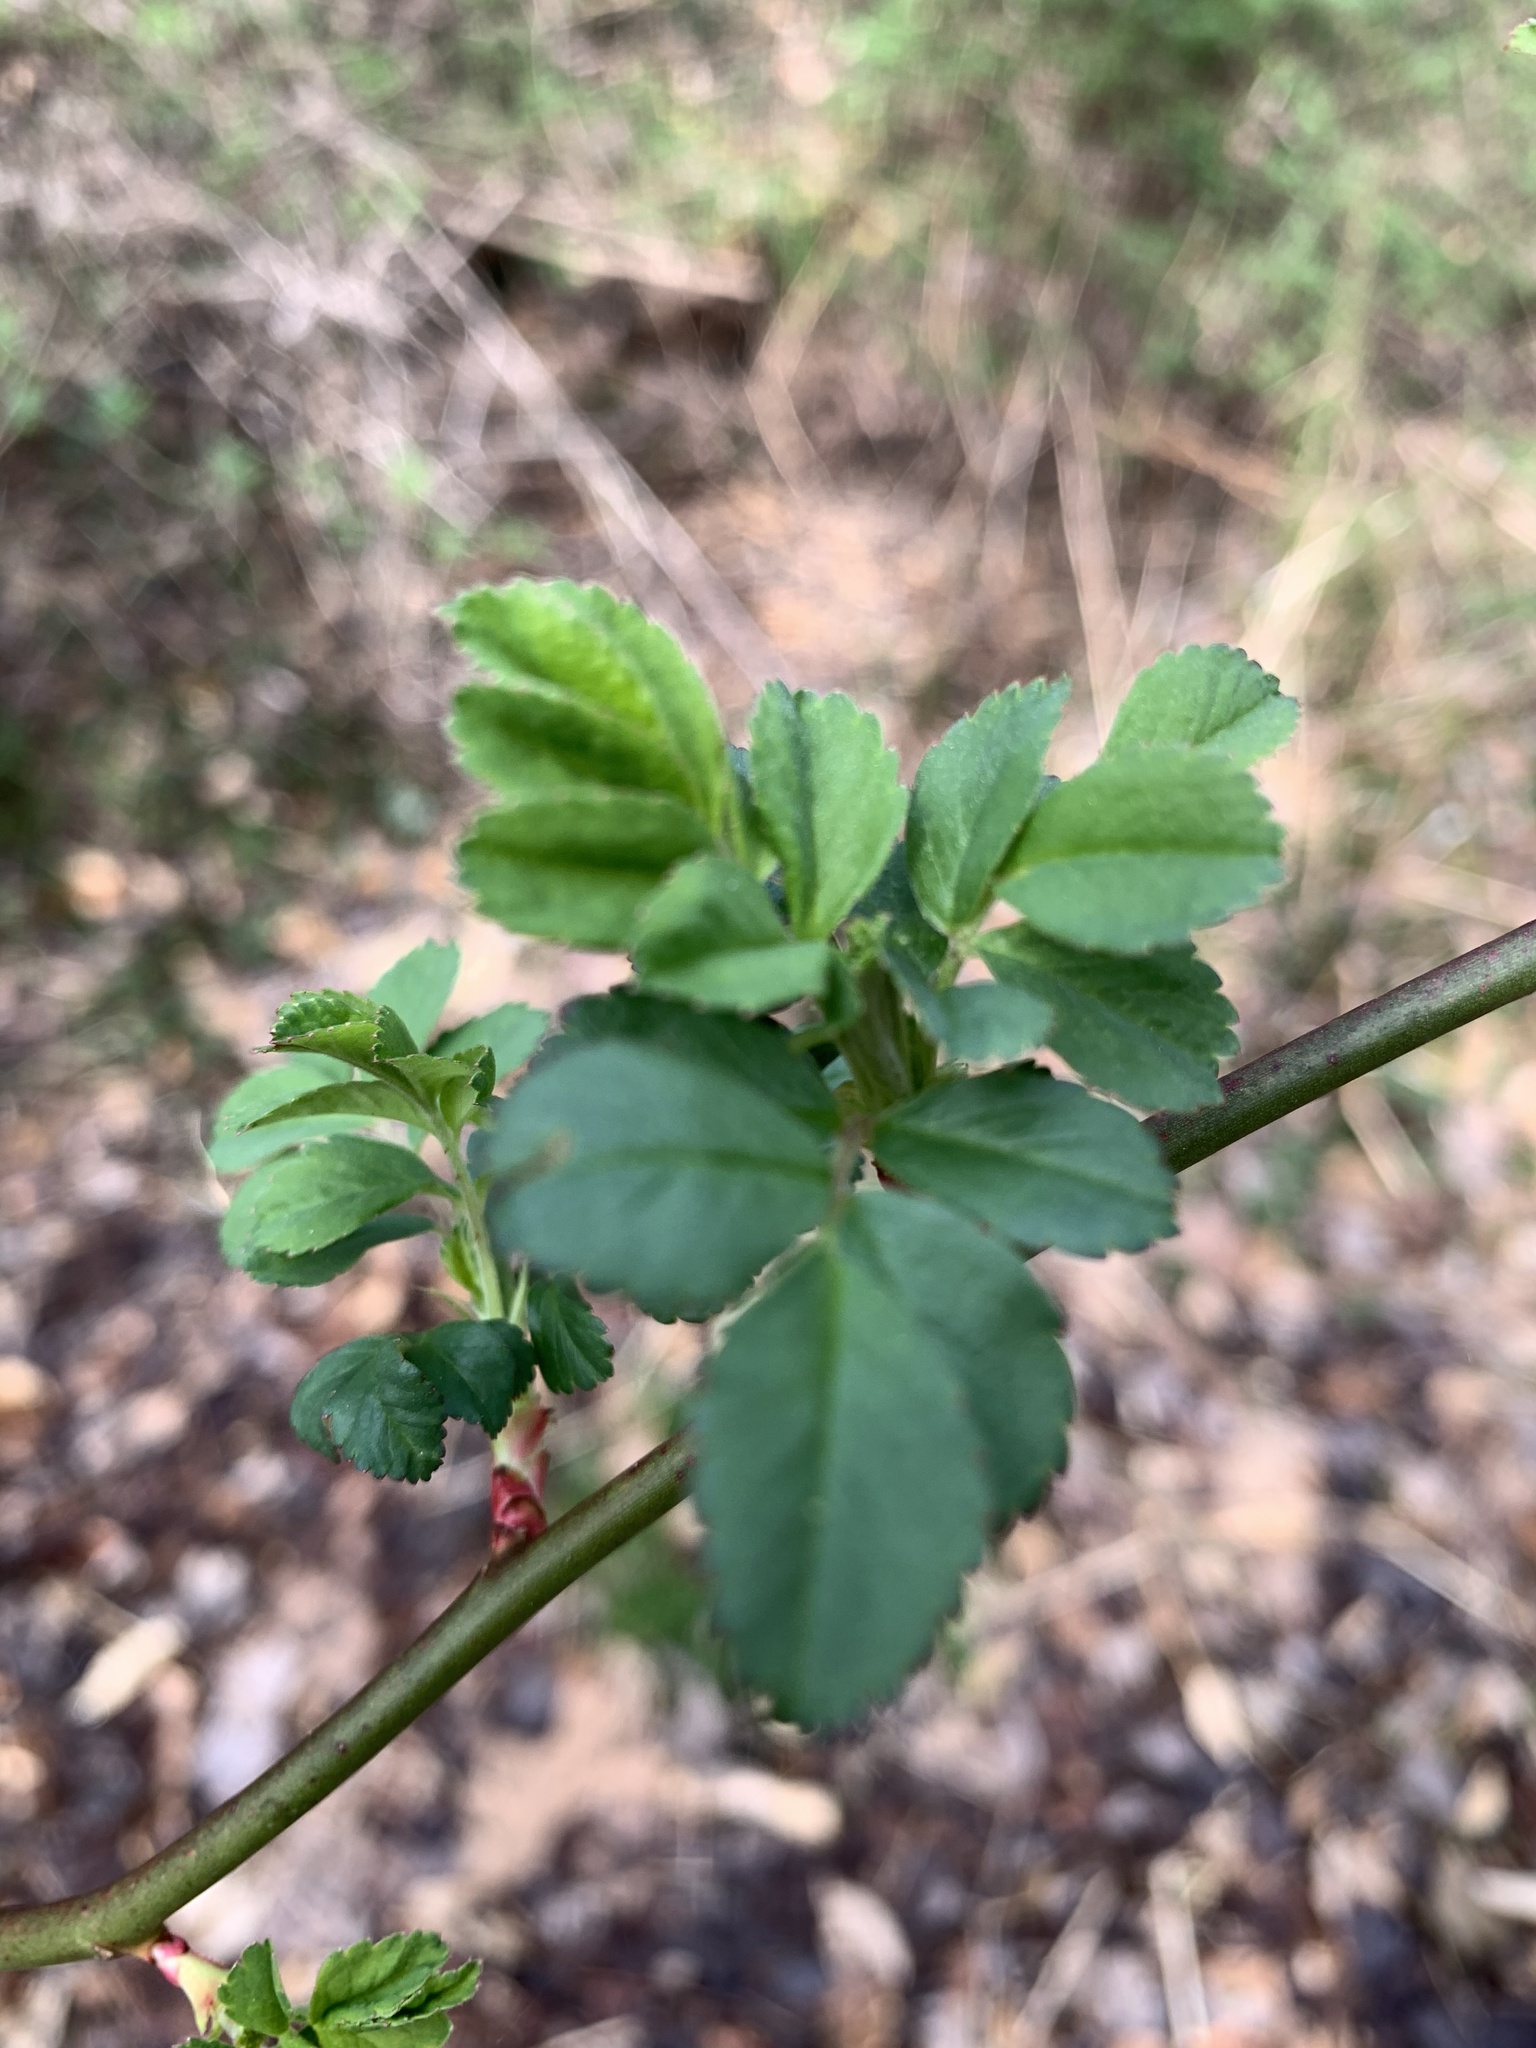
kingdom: Plantae
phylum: Tracheophyta
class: Magnoliopsida
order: Rosales
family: Rosaceae
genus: Rosa
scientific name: Rosa multiflora
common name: Multiflora rose
